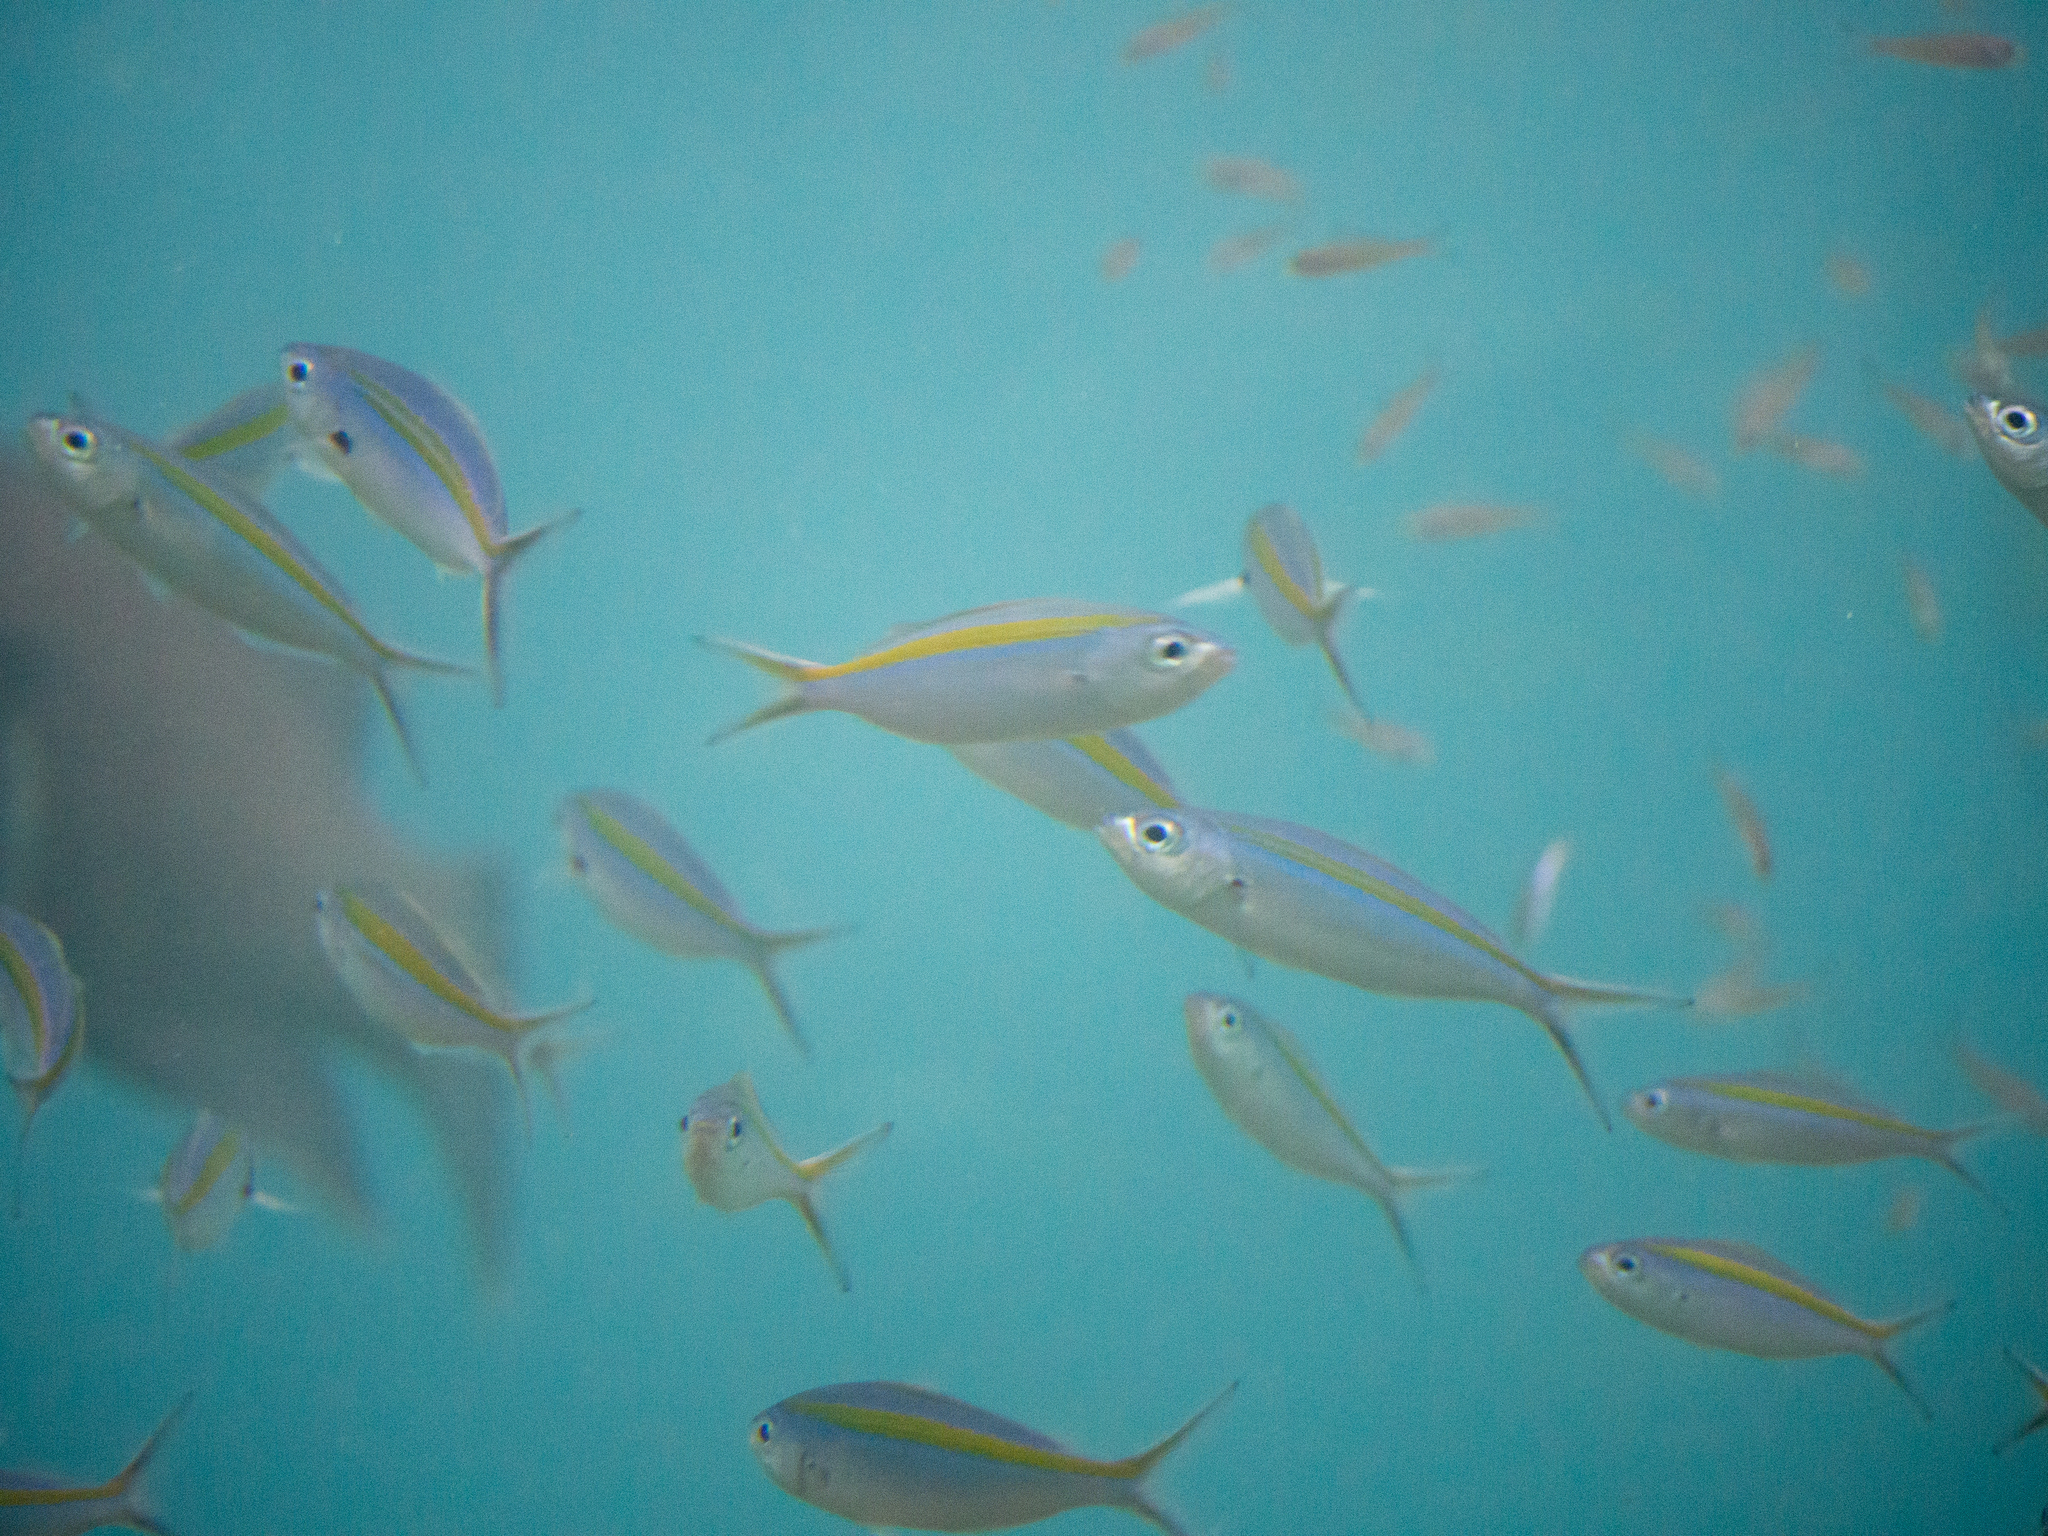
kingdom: Animalia
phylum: Chordata
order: Perciformes
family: Caesionidae
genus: Caesio
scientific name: Caesio caerulaurea
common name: Blue and gold fusilier
